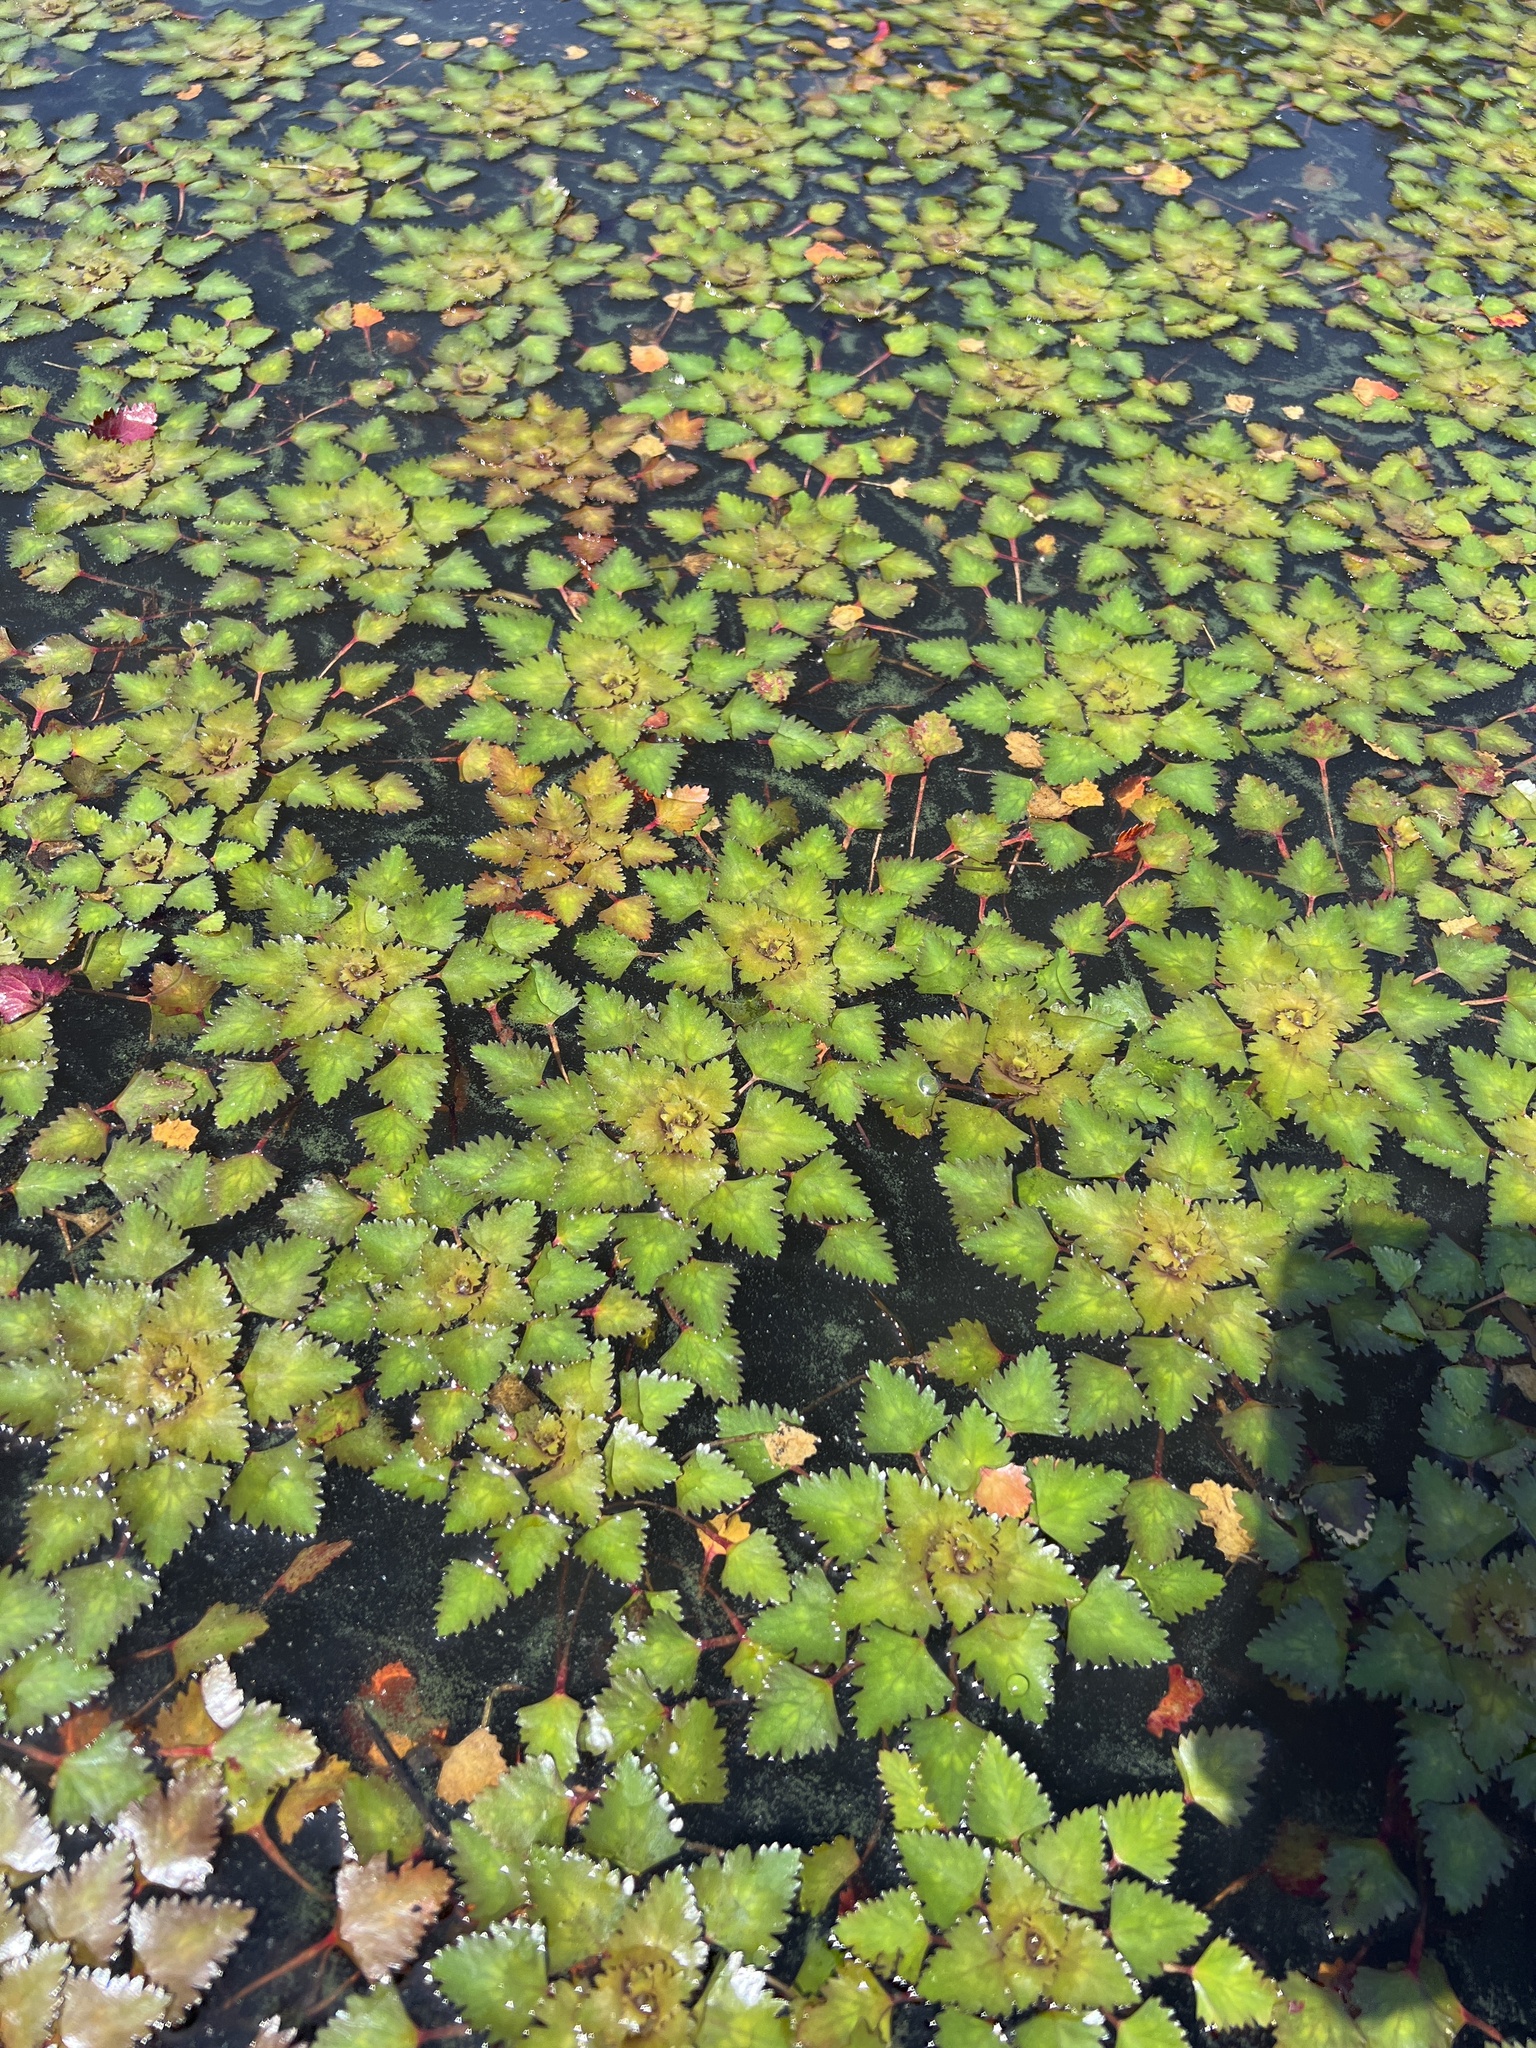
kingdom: Plantae
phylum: Tracheophyta
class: Magnoliopsida
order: Myrtales
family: Lythraceae
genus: Trapa
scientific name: Trapa natans
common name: Water chestnut
